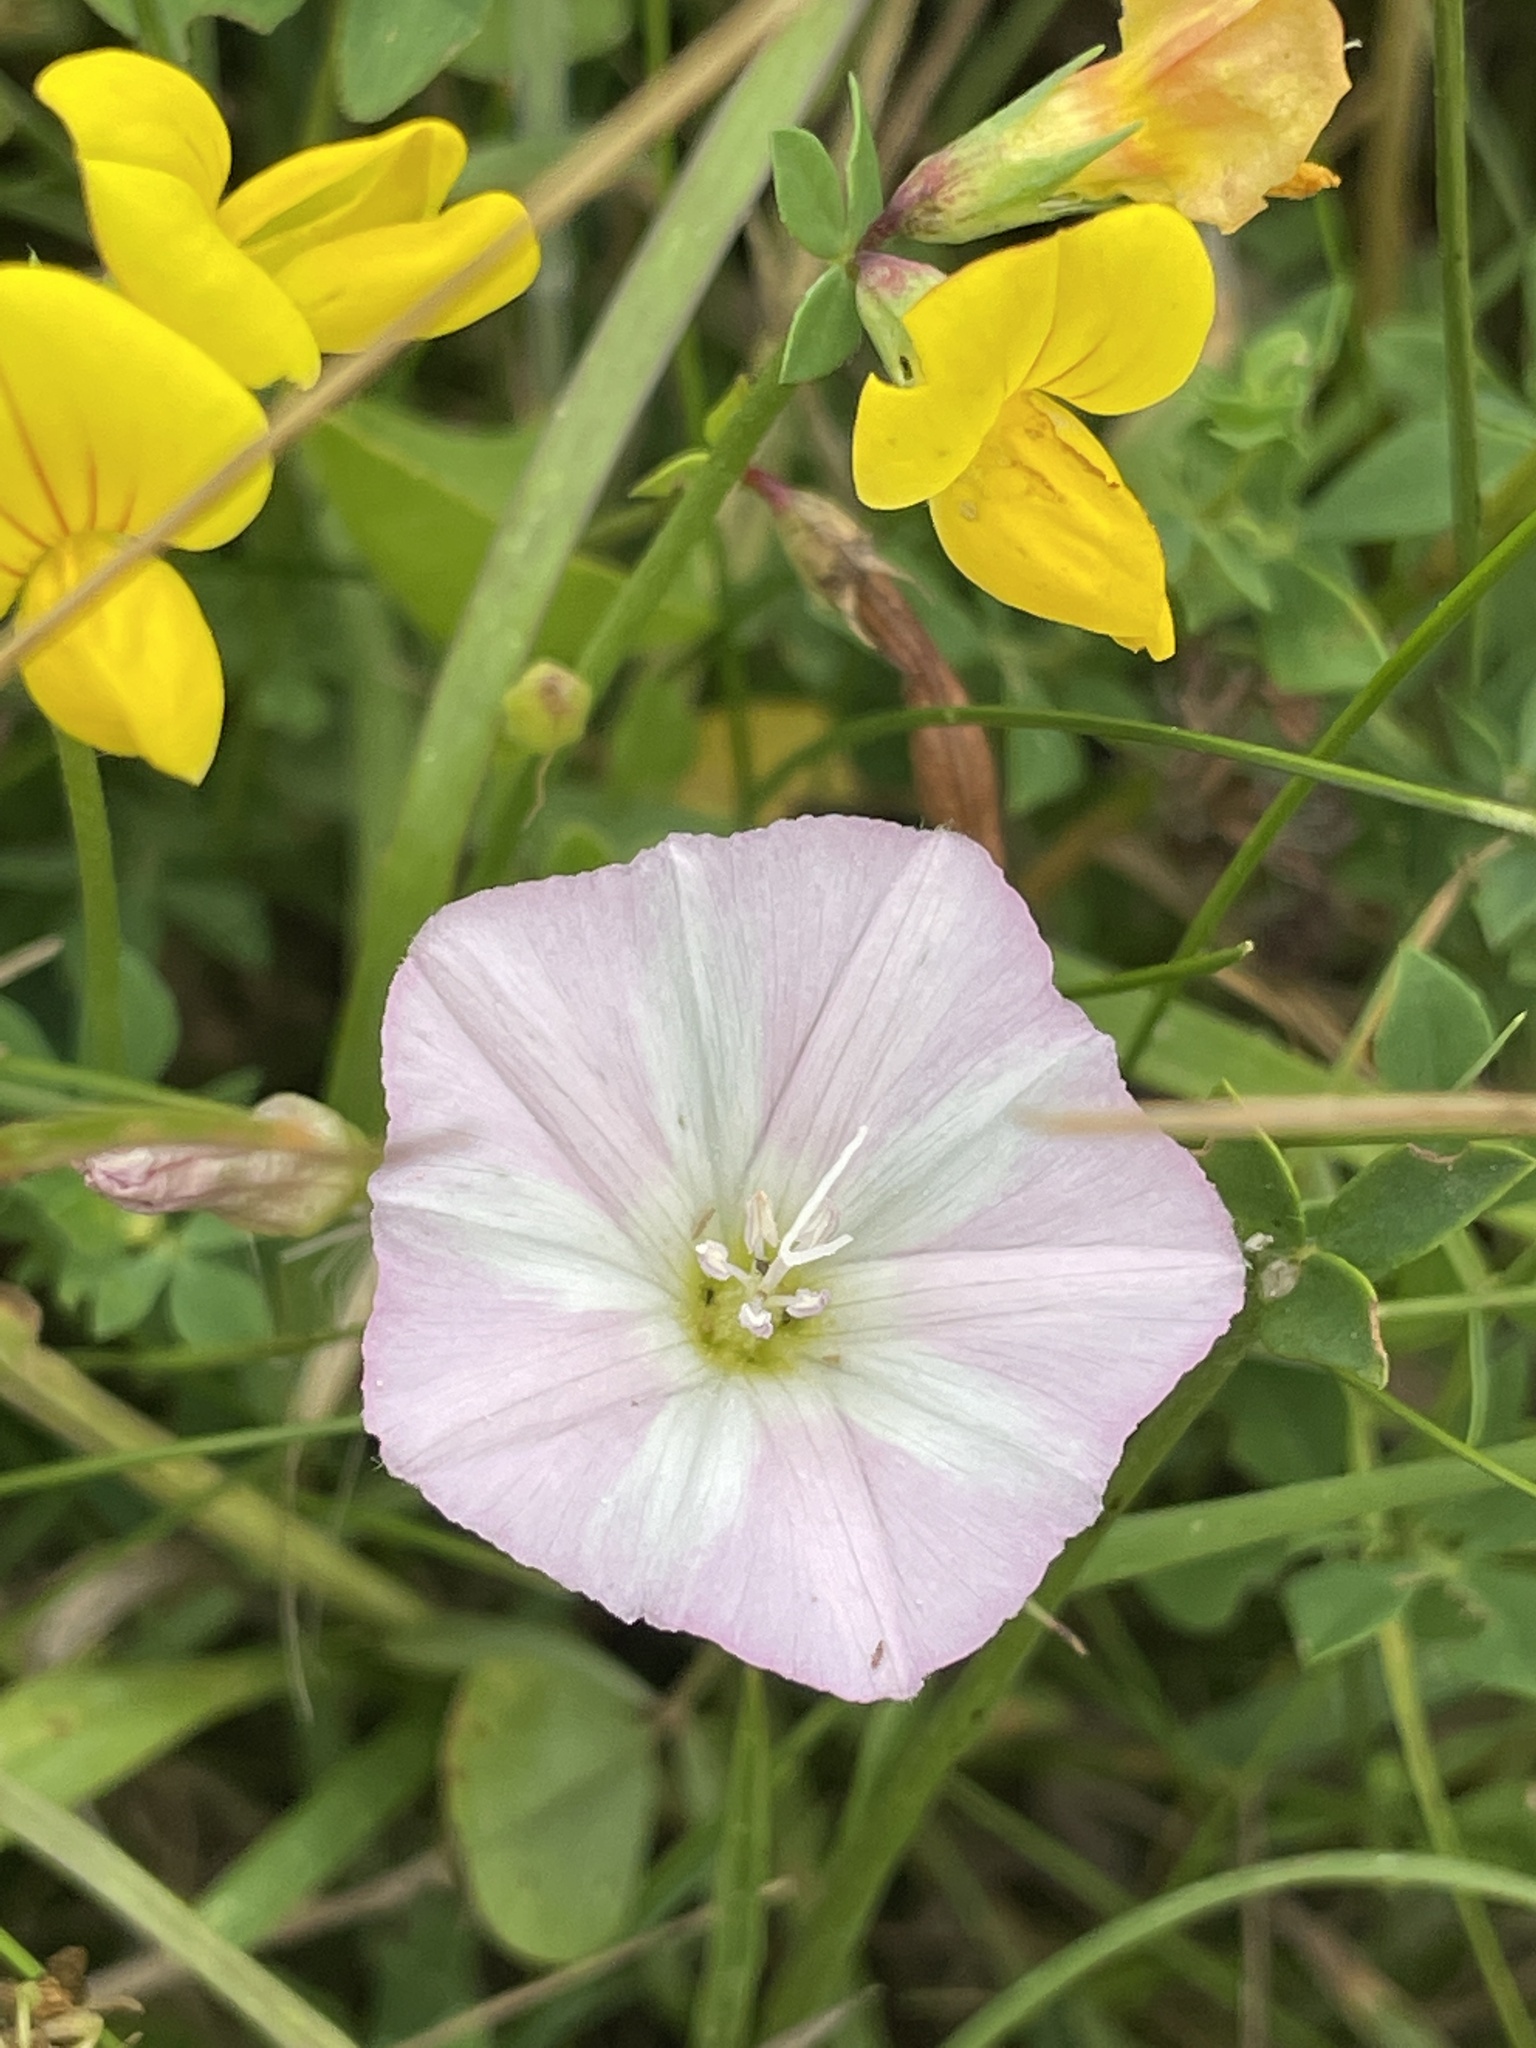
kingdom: Plantae
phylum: Tracheophyta
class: Magnoliopsida
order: Solanales
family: Convolvulaceae
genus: Convolvulus
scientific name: Convolvulus arvensis
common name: Field bindweed
